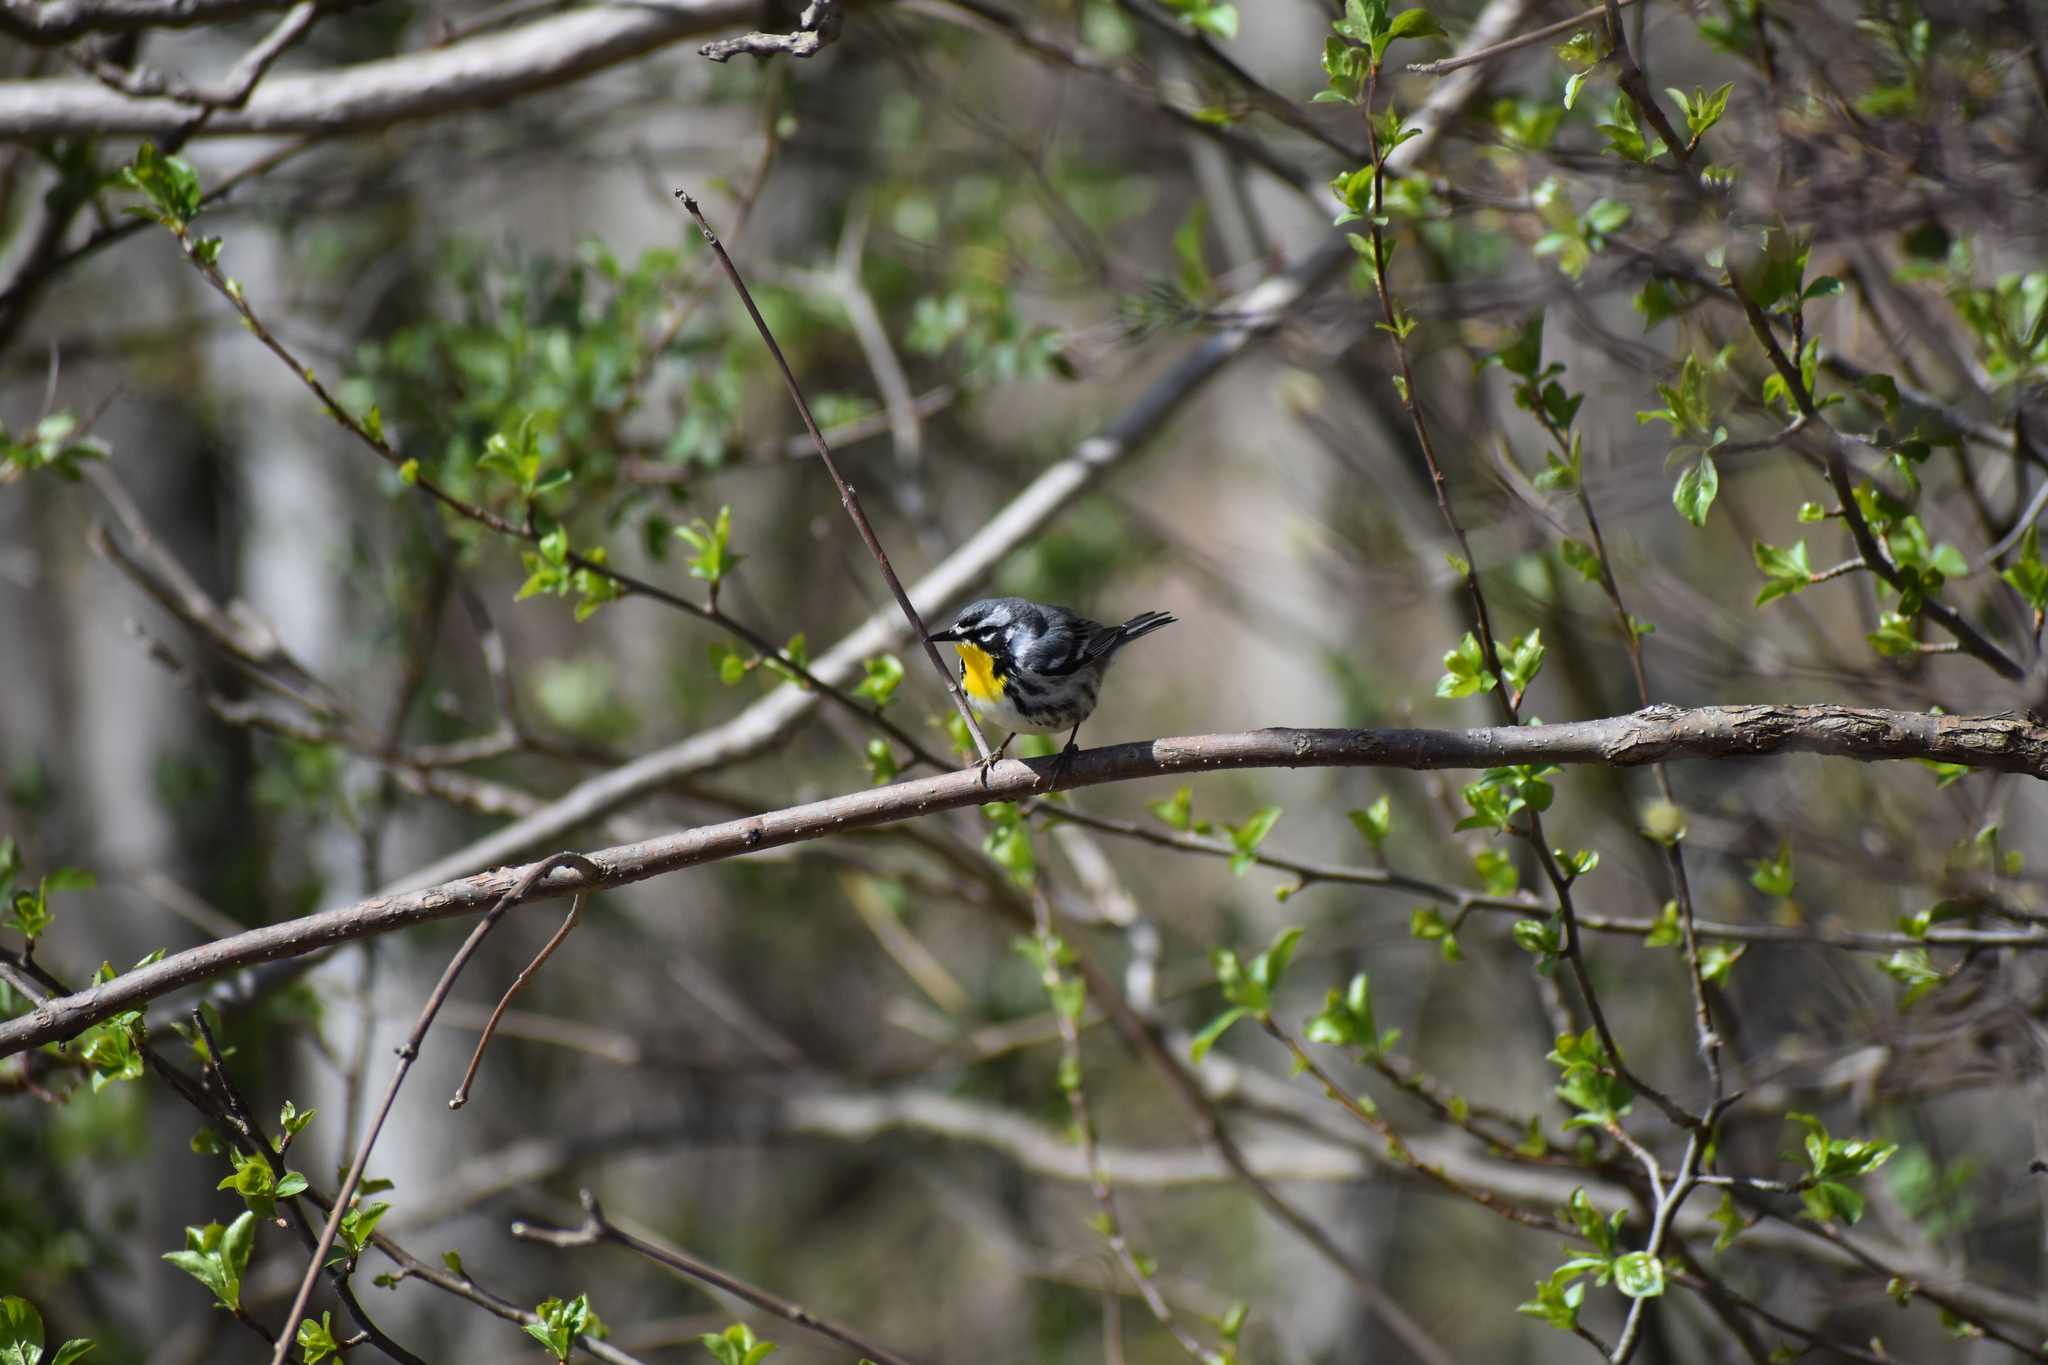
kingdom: Animalia
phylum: Chordata
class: Aves
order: Passeriformes
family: Parulidae
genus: Setophaga
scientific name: Setophaga dominica
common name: Yellow-throated warbler
